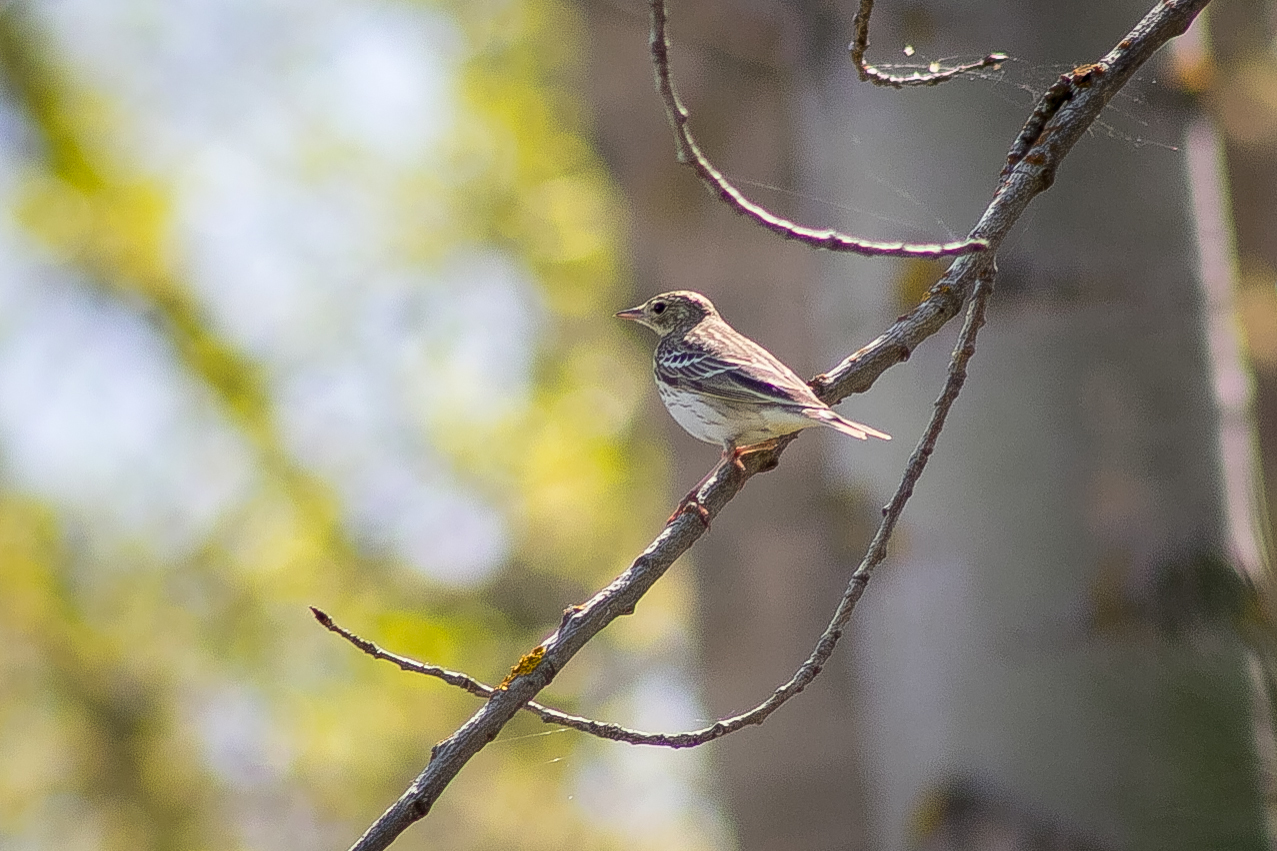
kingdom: Animalia
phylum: Chordata
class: Aves
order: Passeriformes
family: Motacillidae
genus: Anthus
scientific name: Anthus trivialis
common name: Tree pipit
